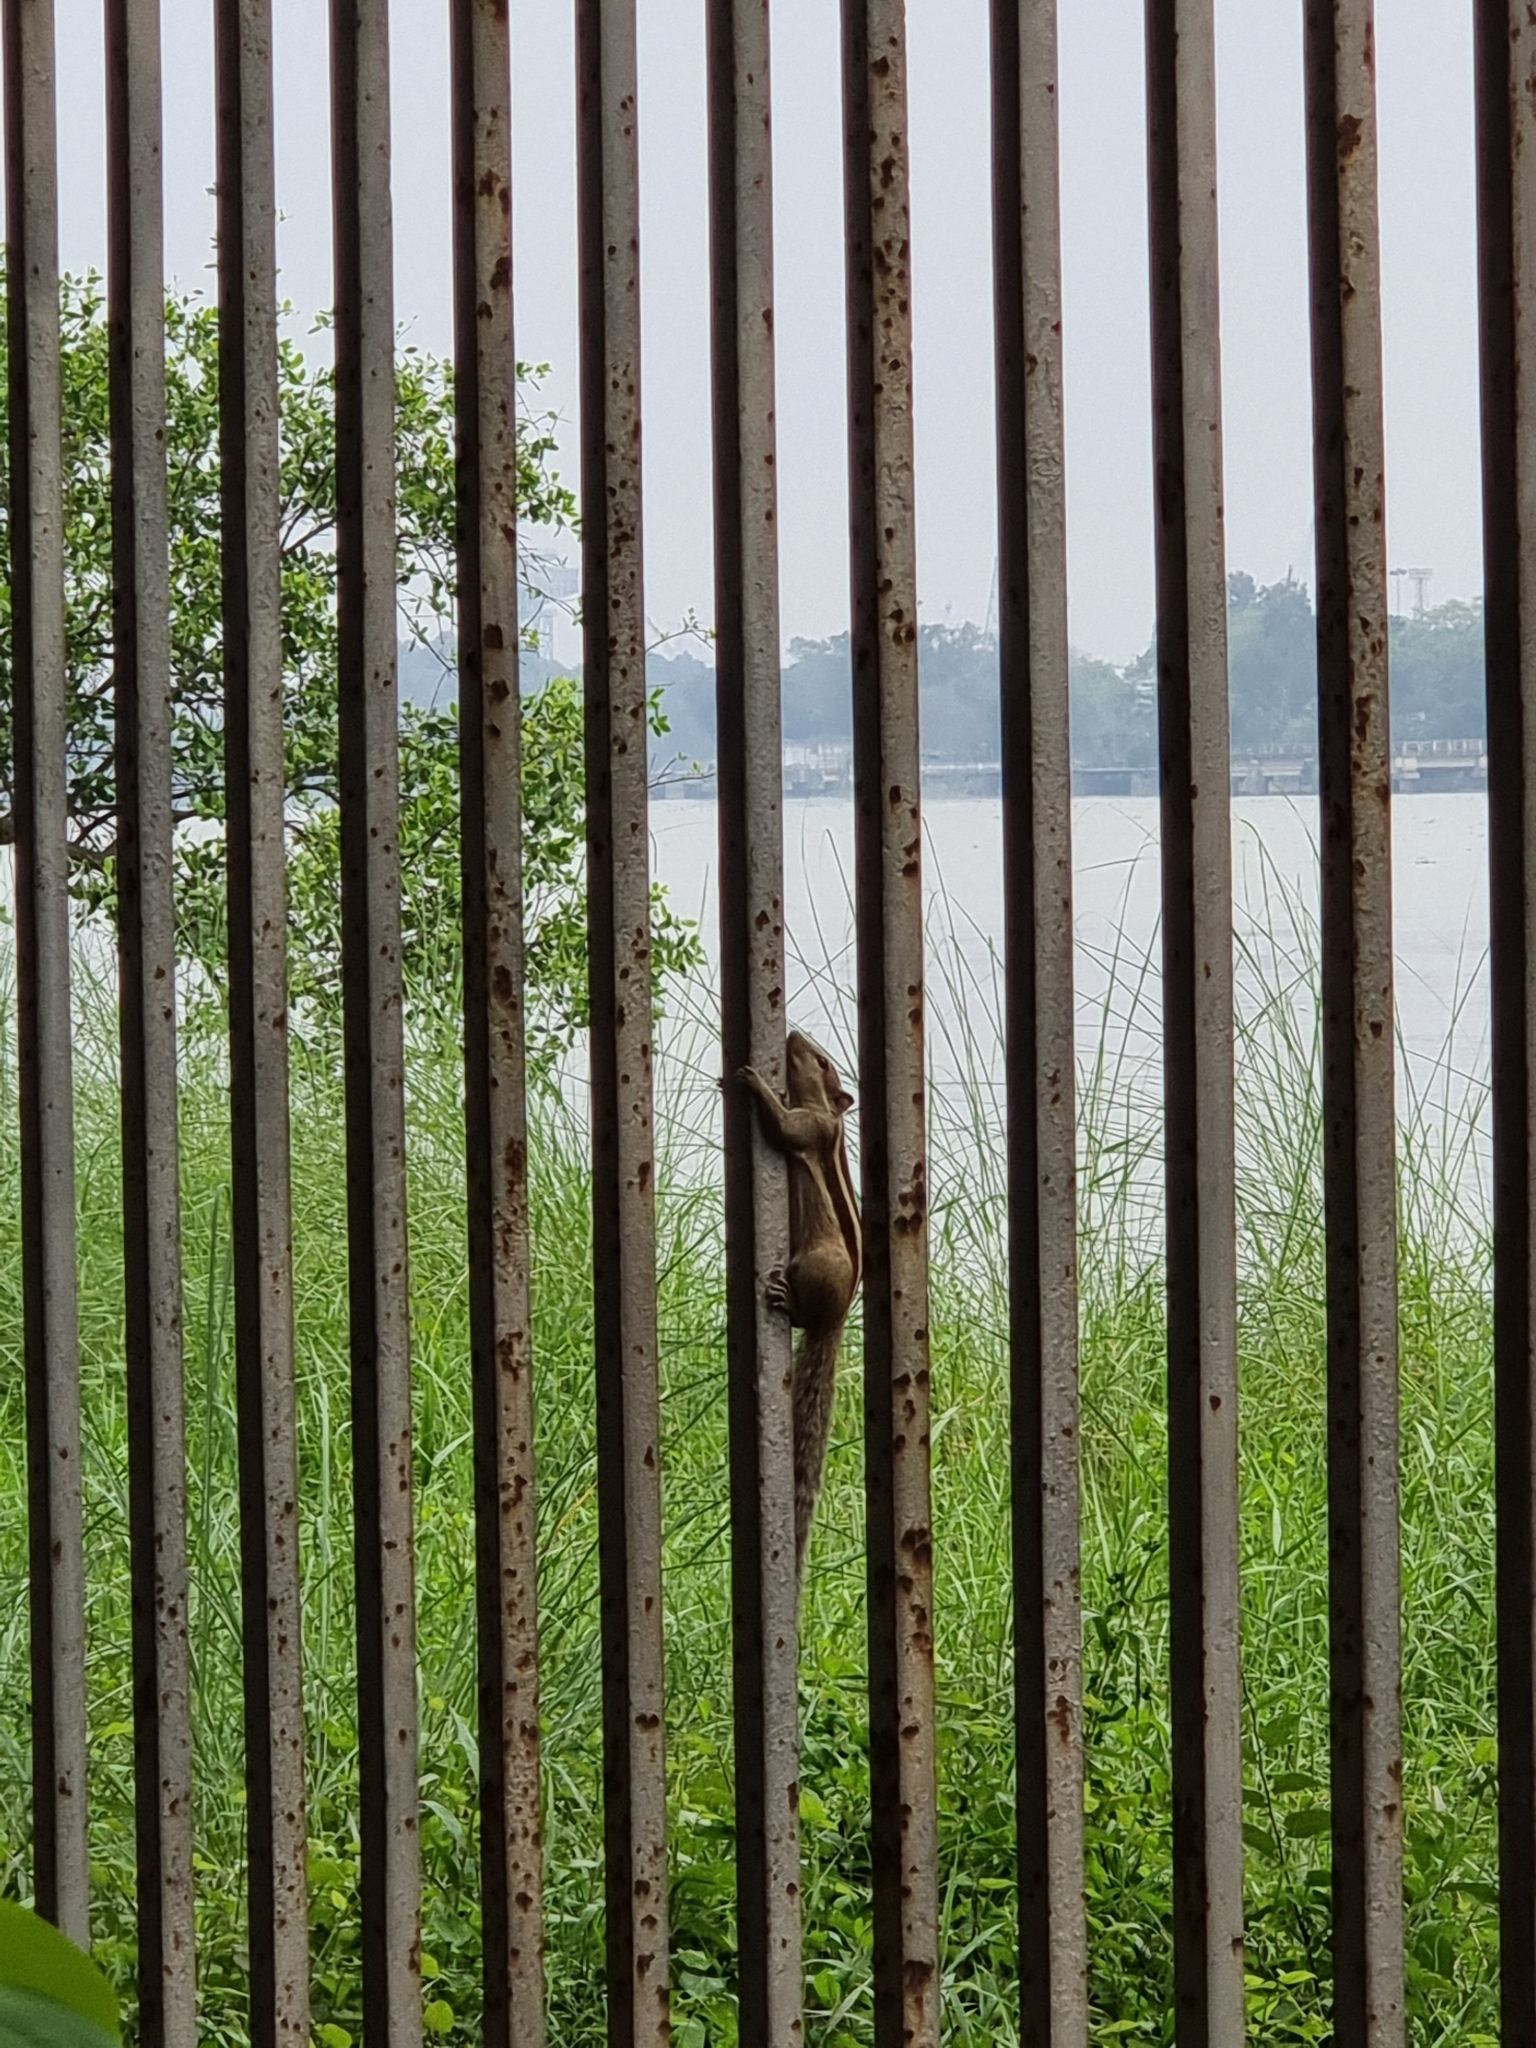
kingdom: Animalia
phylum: Chordata
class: Mammalia
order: Rodentia
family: Sciuridae
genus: Funambulus
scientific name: Funambulus pennantii
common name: Northern palm squirrel
